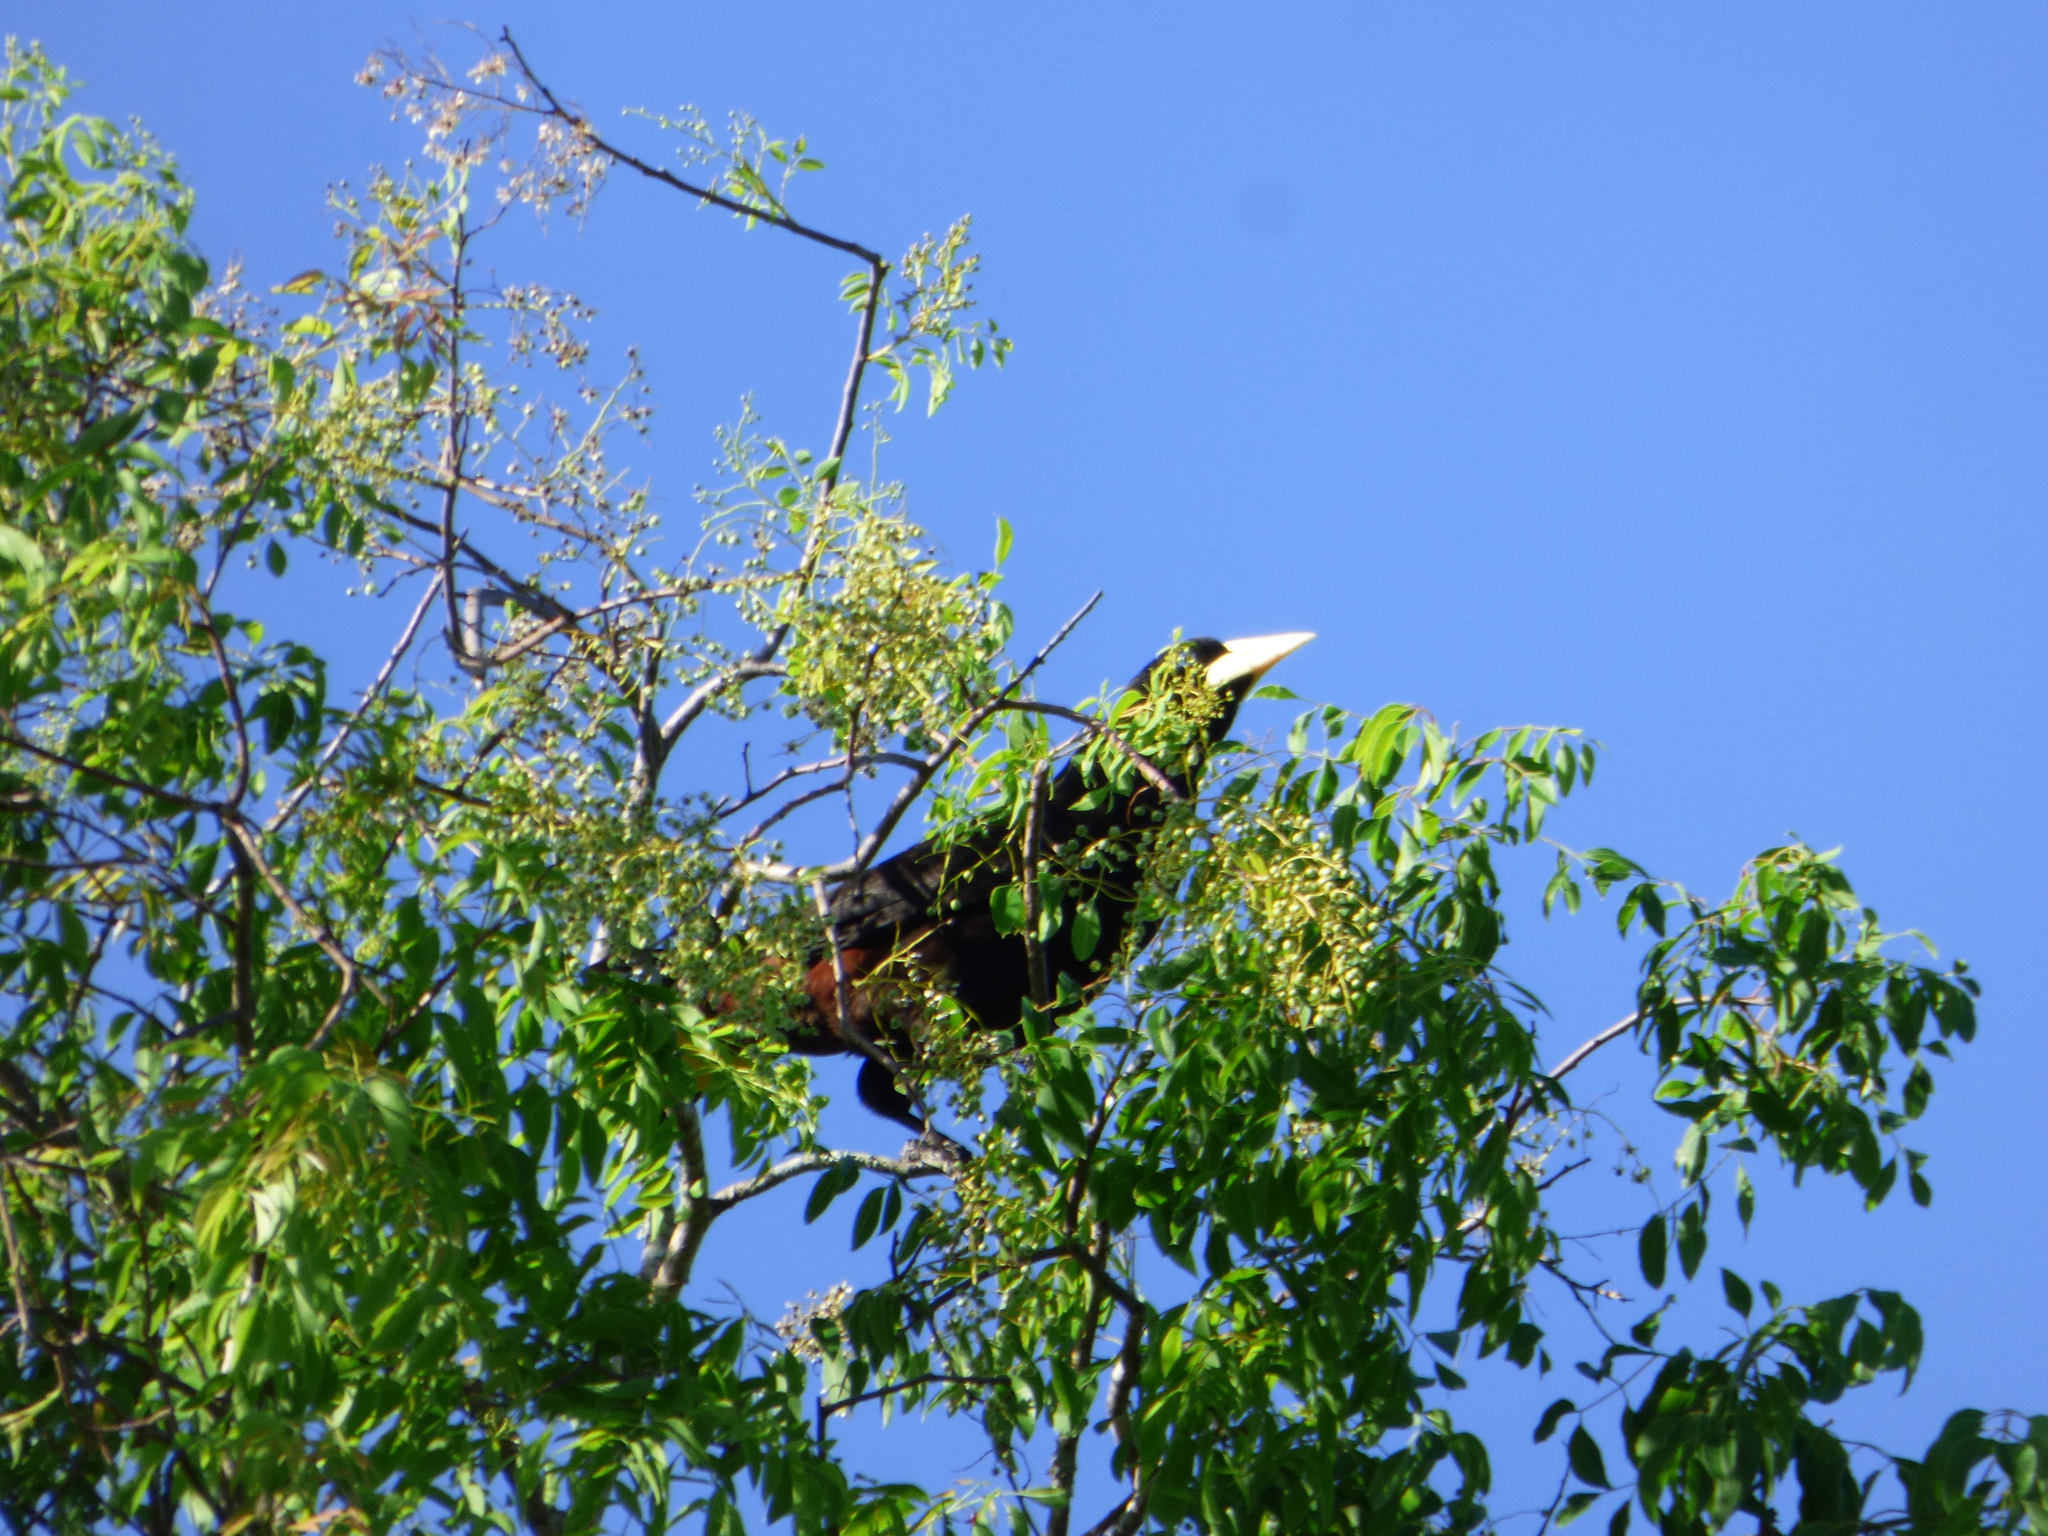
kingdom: Animalia
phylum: Chordata
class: Aves
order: Passeriformes
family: Icteridae
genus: Psarocolius
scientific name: Psarocolius decumanus
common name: Crested oropendola
